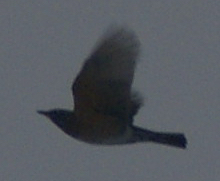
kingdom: Animalia
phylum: Chordata
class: Aves
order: Passeriformes
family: Turdidae
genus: Turdus
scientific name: Turdus migratorius
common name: American robin
